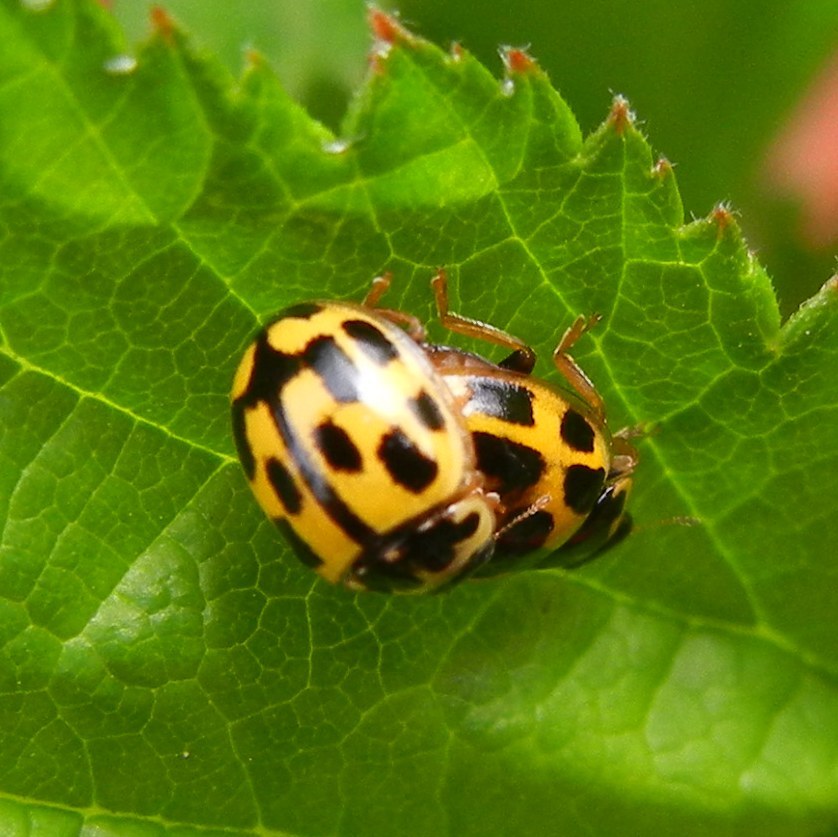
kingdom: Animalia
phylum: Arthropoda
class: Insecta
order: Coleoptera
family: Coccinellidae
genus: Propylaea
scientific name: Propylaea quatuordecimpunctata
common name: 14-spotted ladybird beetle
